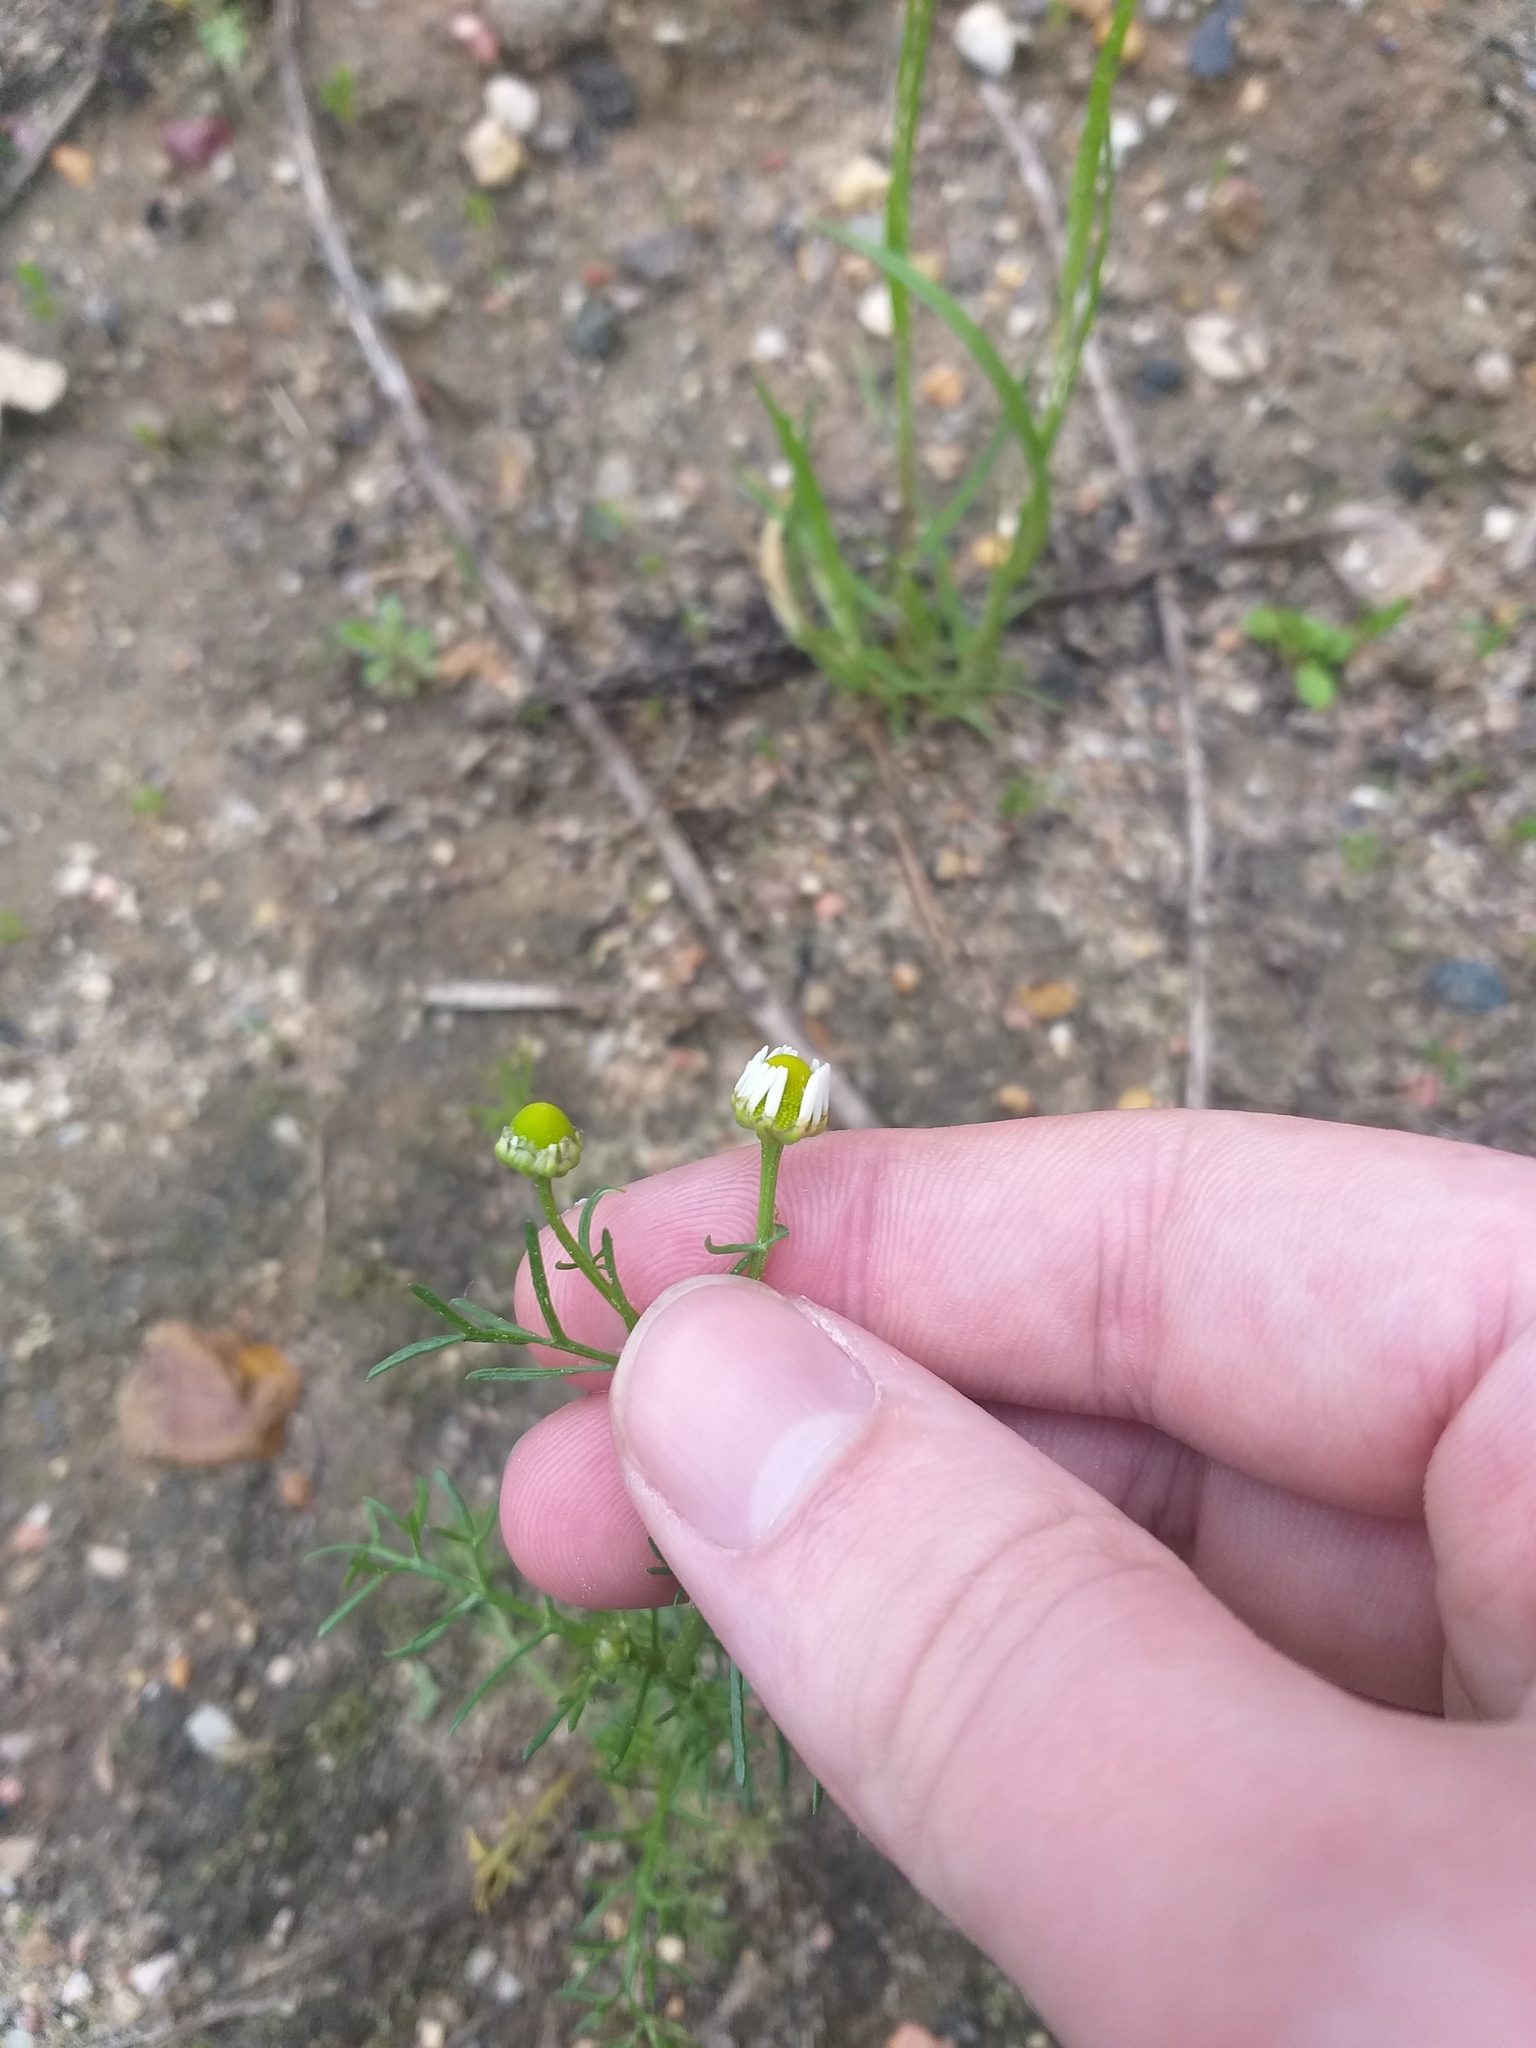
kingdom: Plantae
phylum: Tracheophyta
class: Magnoliopsida
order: Asterales
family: Asteraceae
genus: Matricaria
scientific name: Matricaria chamomilla
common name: Scented mayweed
